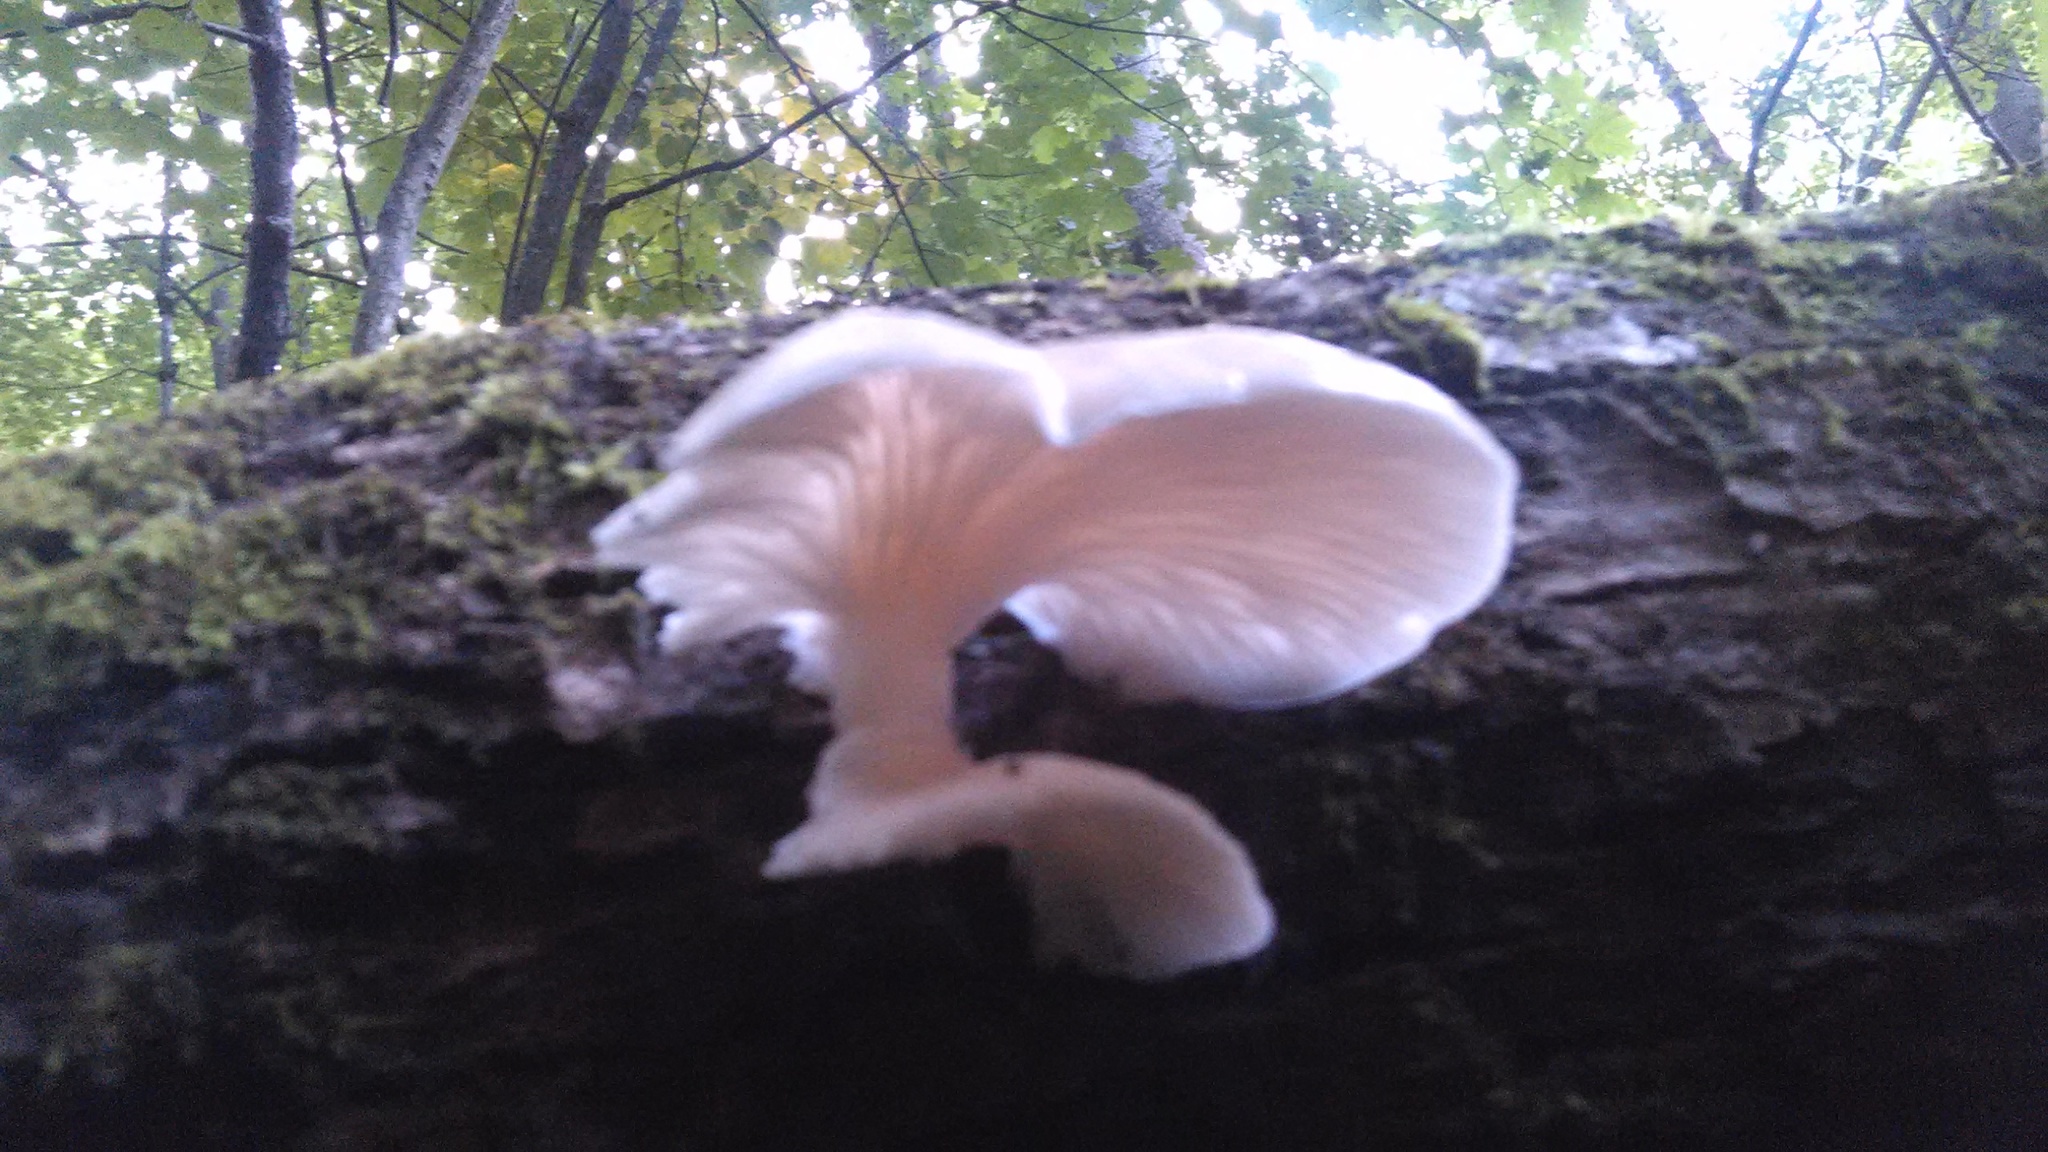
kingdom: Fungi
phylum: Basidiomycota
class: Agaricomycetes
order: Agaricales
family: Pleurotaceae
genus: Pleurotus
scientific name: Pleurotus pulmonarius
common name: Pale oyster
